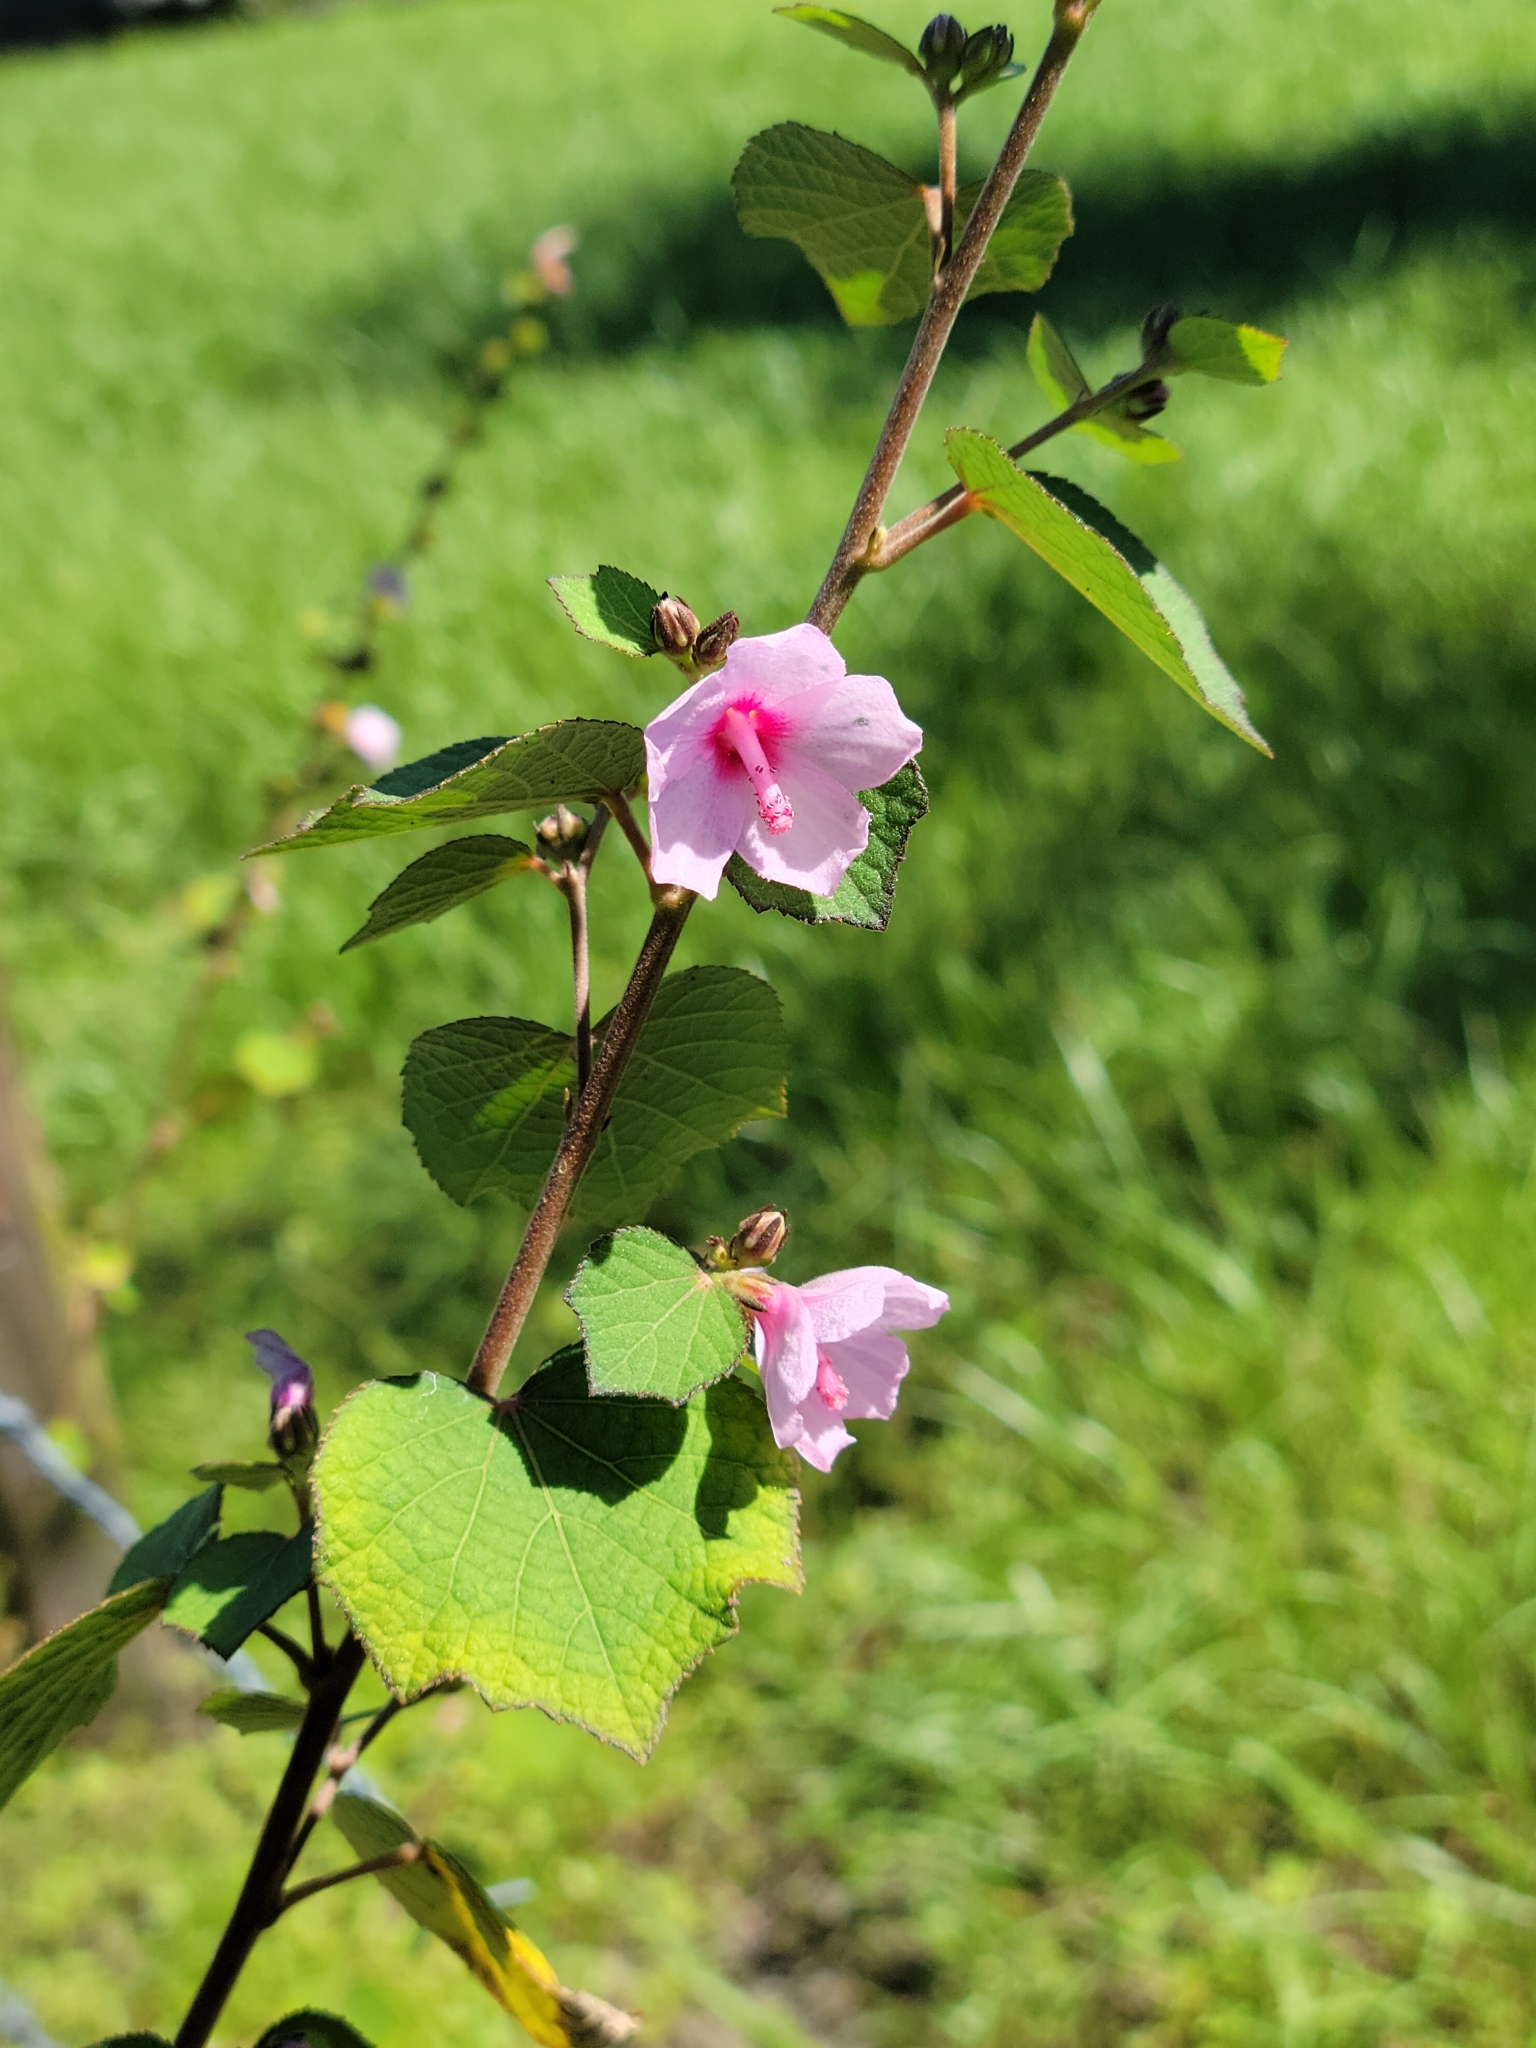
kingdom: Plantae
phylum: Tracheophyta
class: Magnoliopsida
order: Malvales
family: Malvaceae
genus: Urena
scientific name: Urena lobata
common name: Caesarweed
